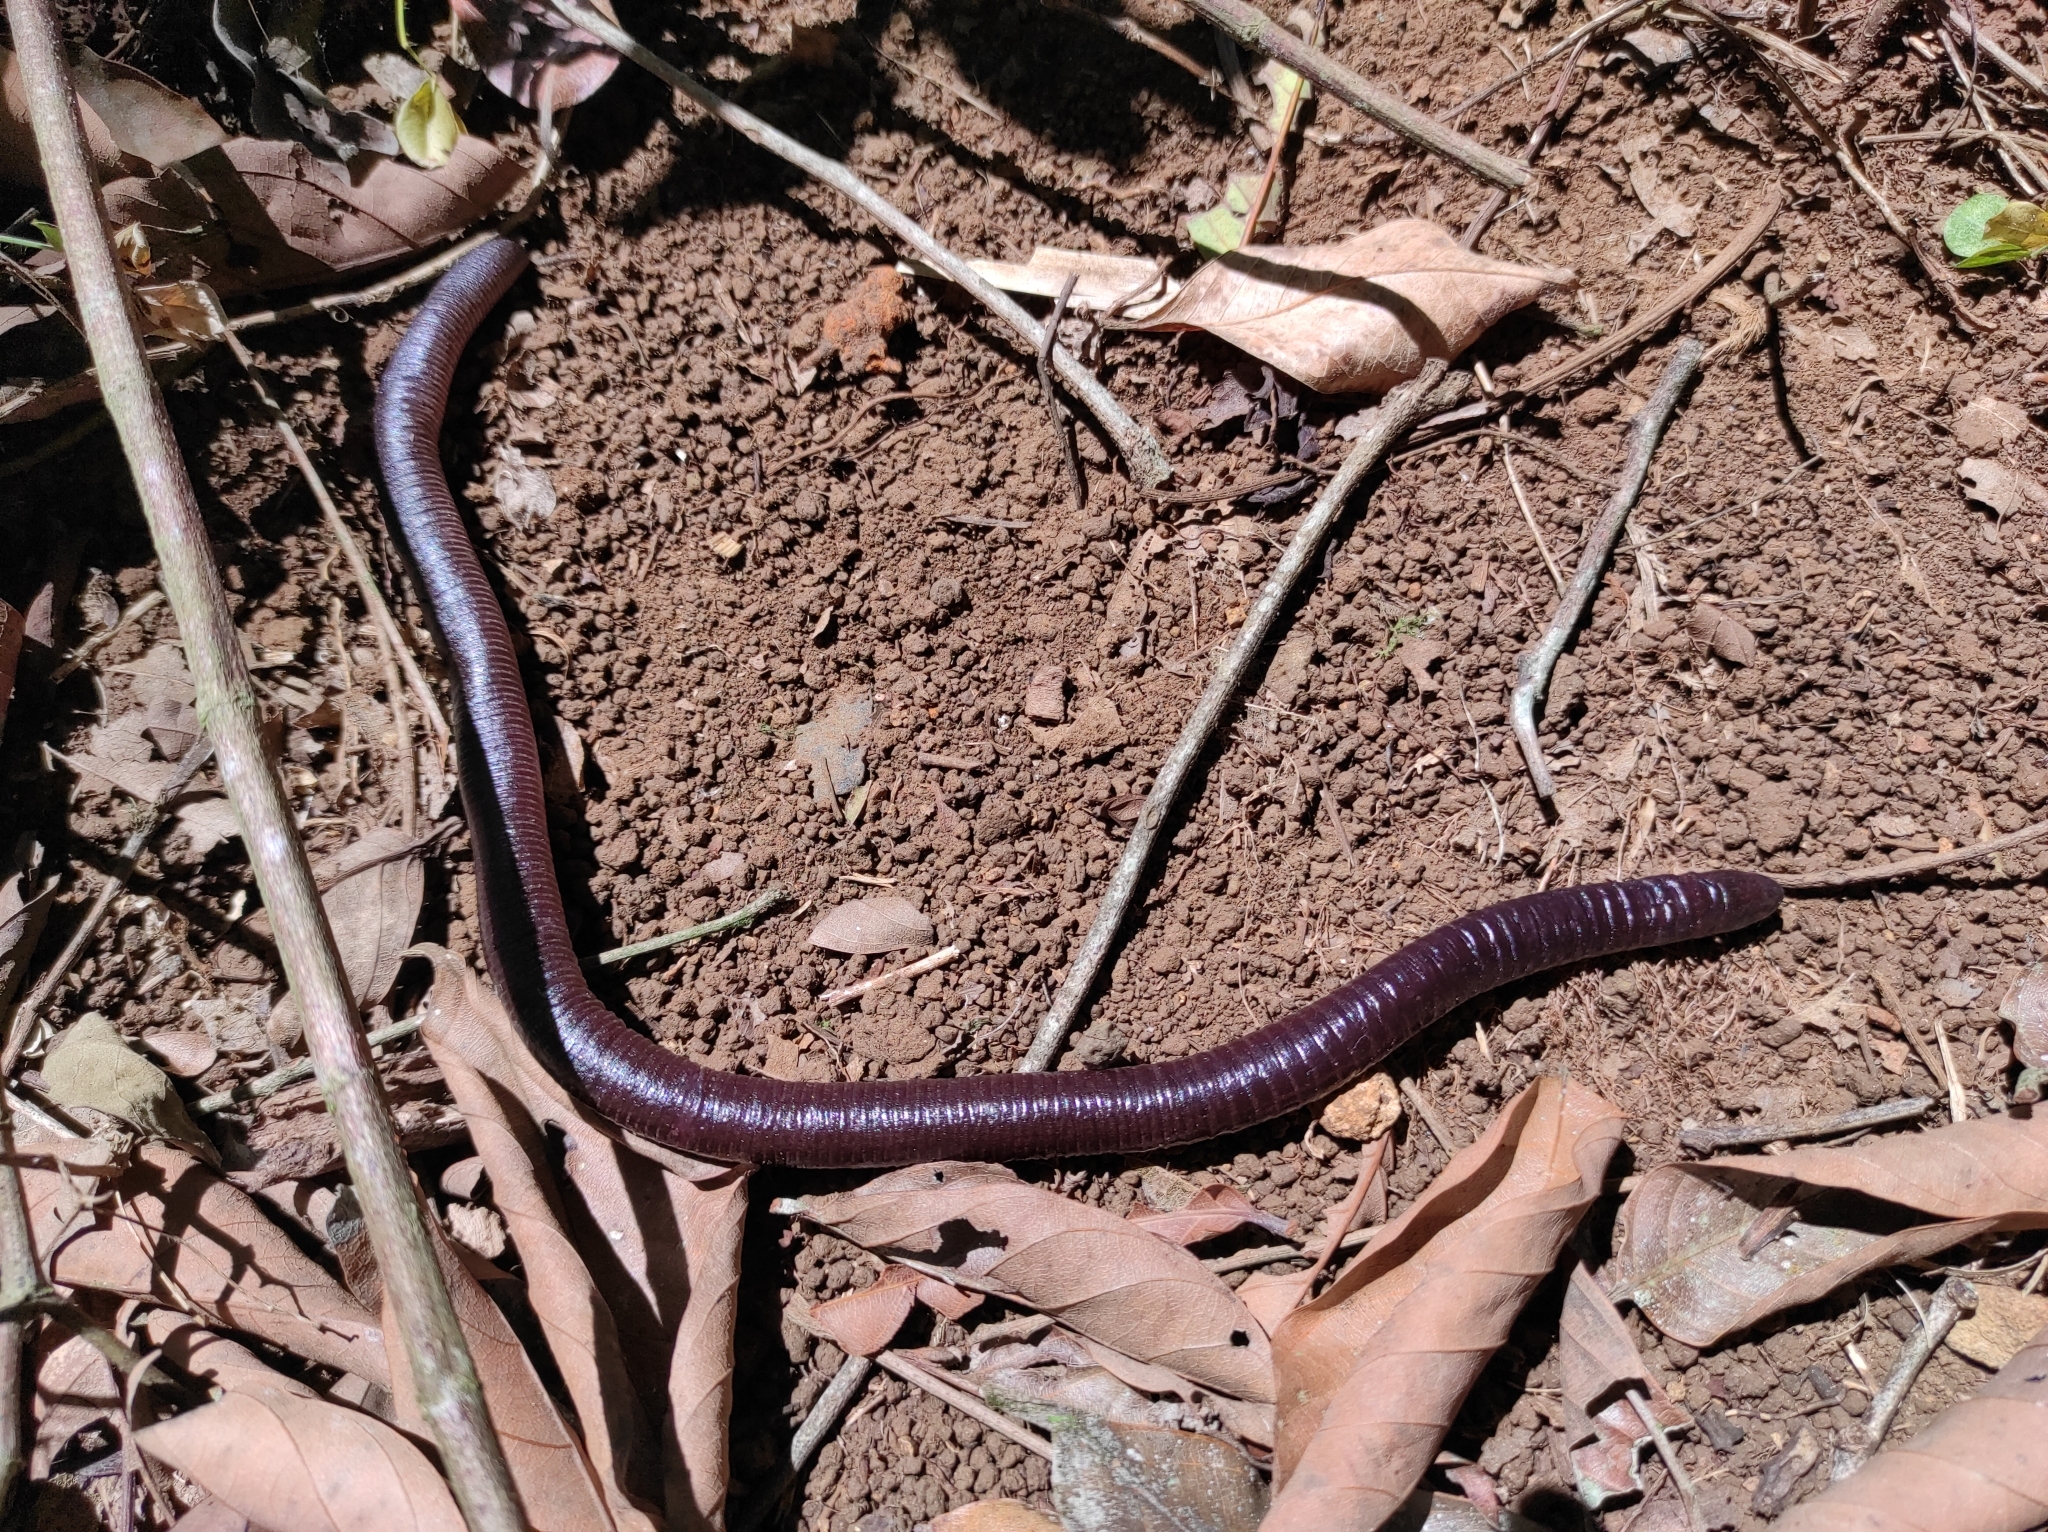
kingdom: Animalia
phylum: Chordata
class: Amphibia
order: Gymnophiona
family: Dermophiidae
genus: Gymnopis
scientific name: Gymnopis multiplicata
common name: Varagua caecilian
